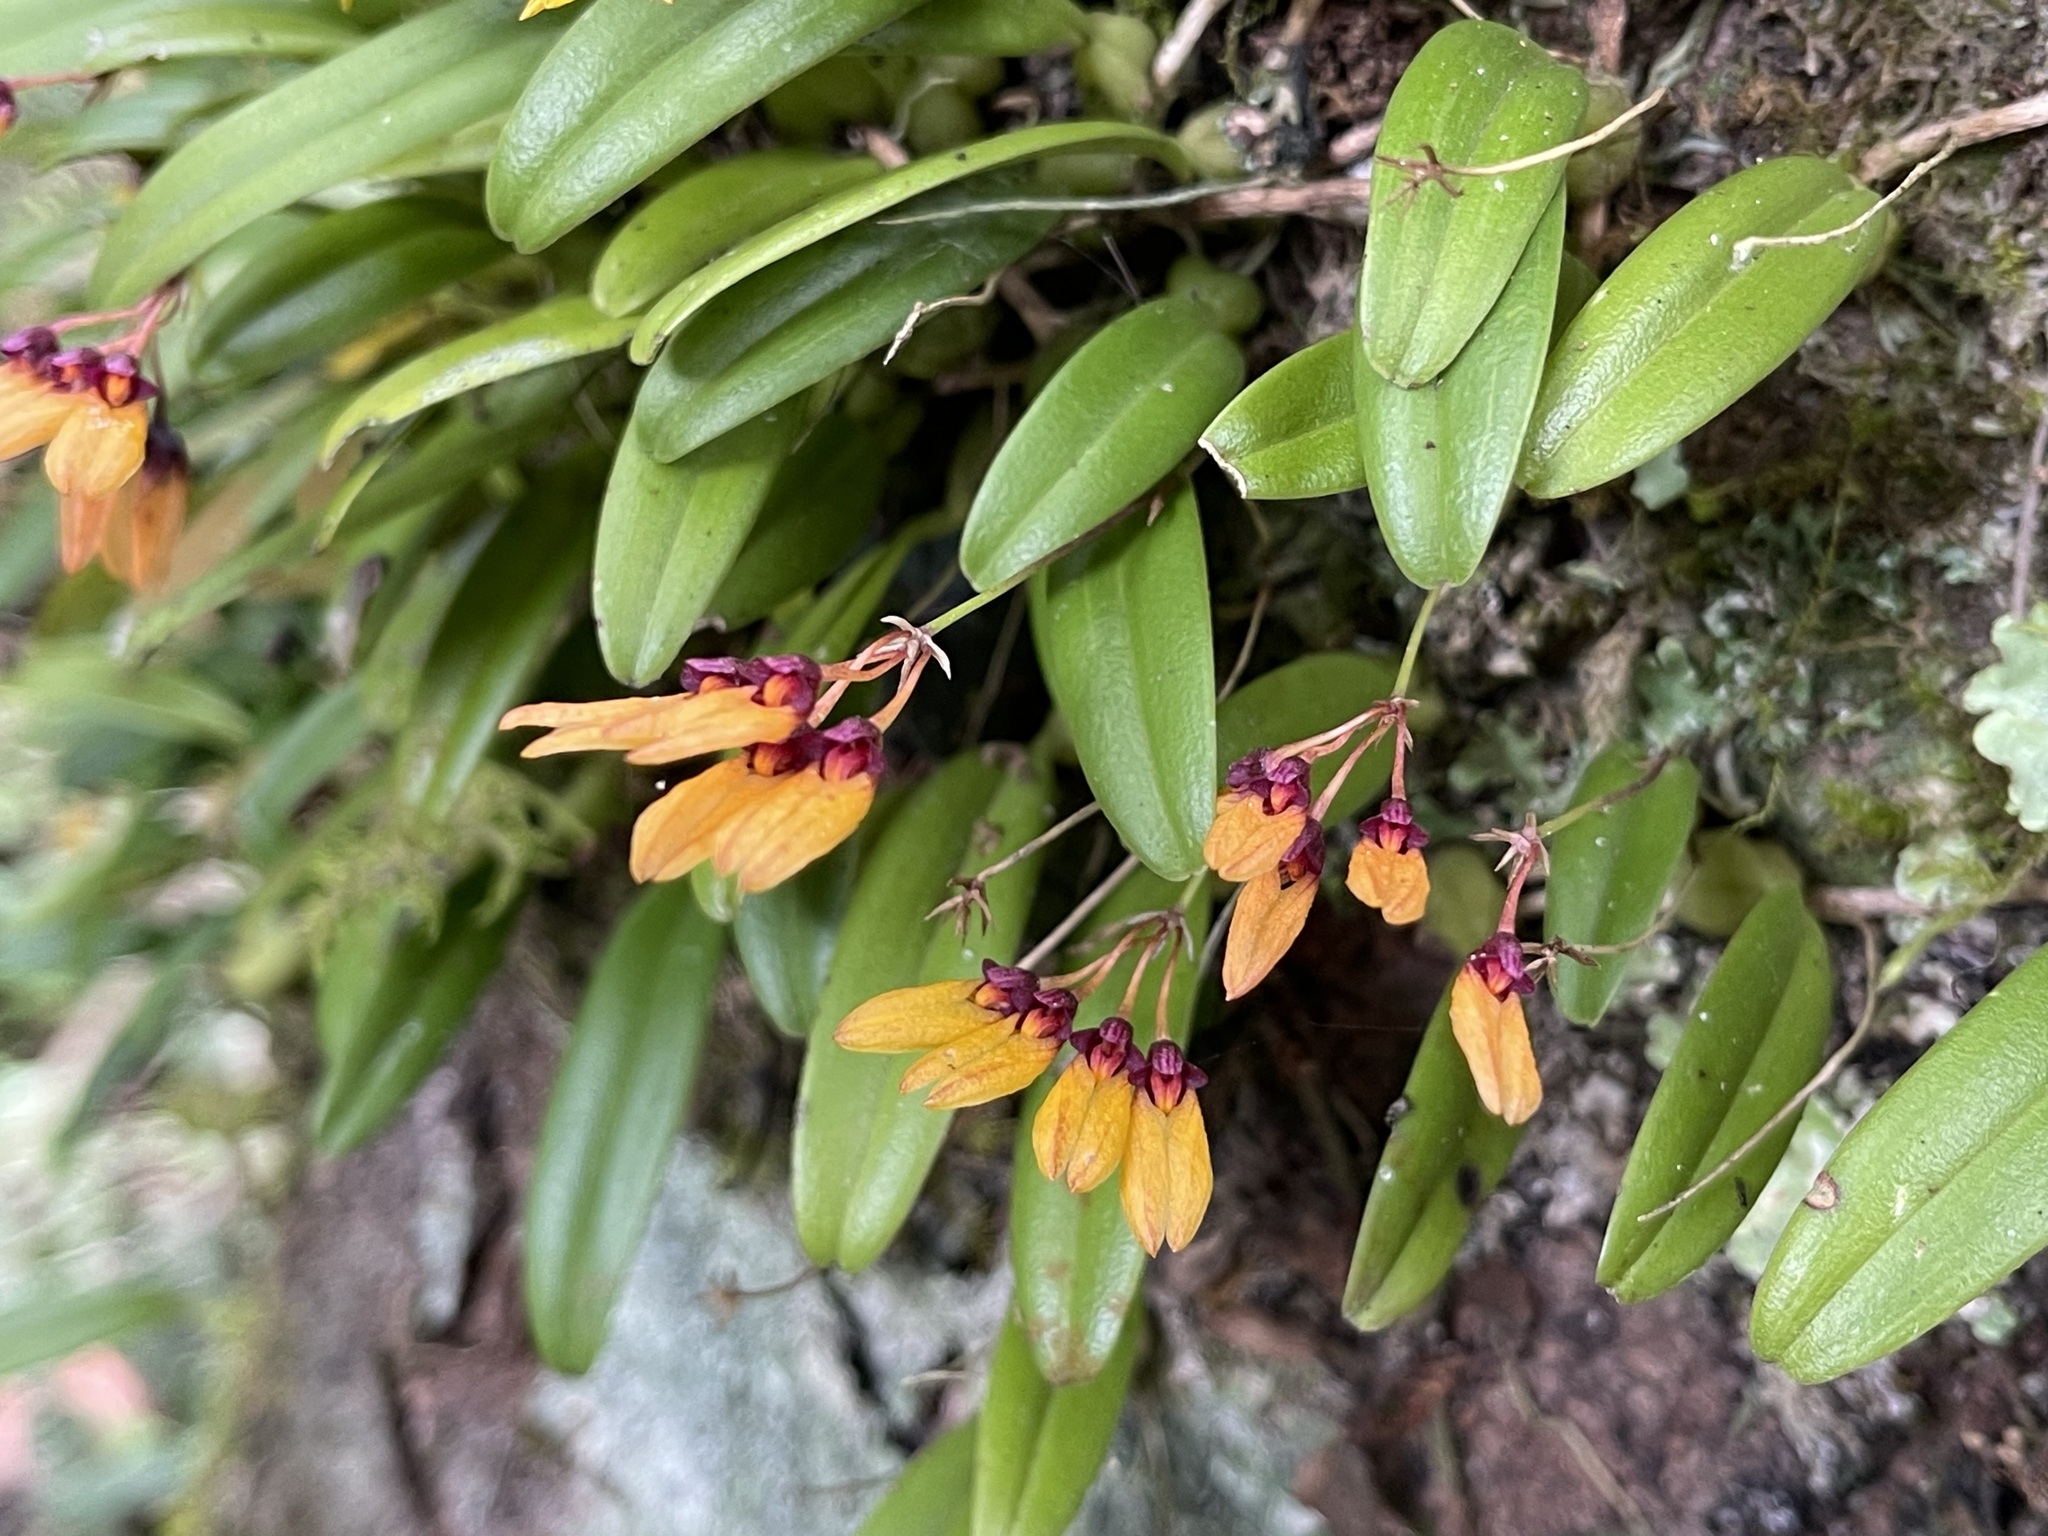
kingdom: Plantae
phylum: Tracheophyta
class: Liliopsida
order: Asparagales
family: Orchidaceae
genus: Bulbophyllum
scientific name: Bulbophyllum retusiusculum
